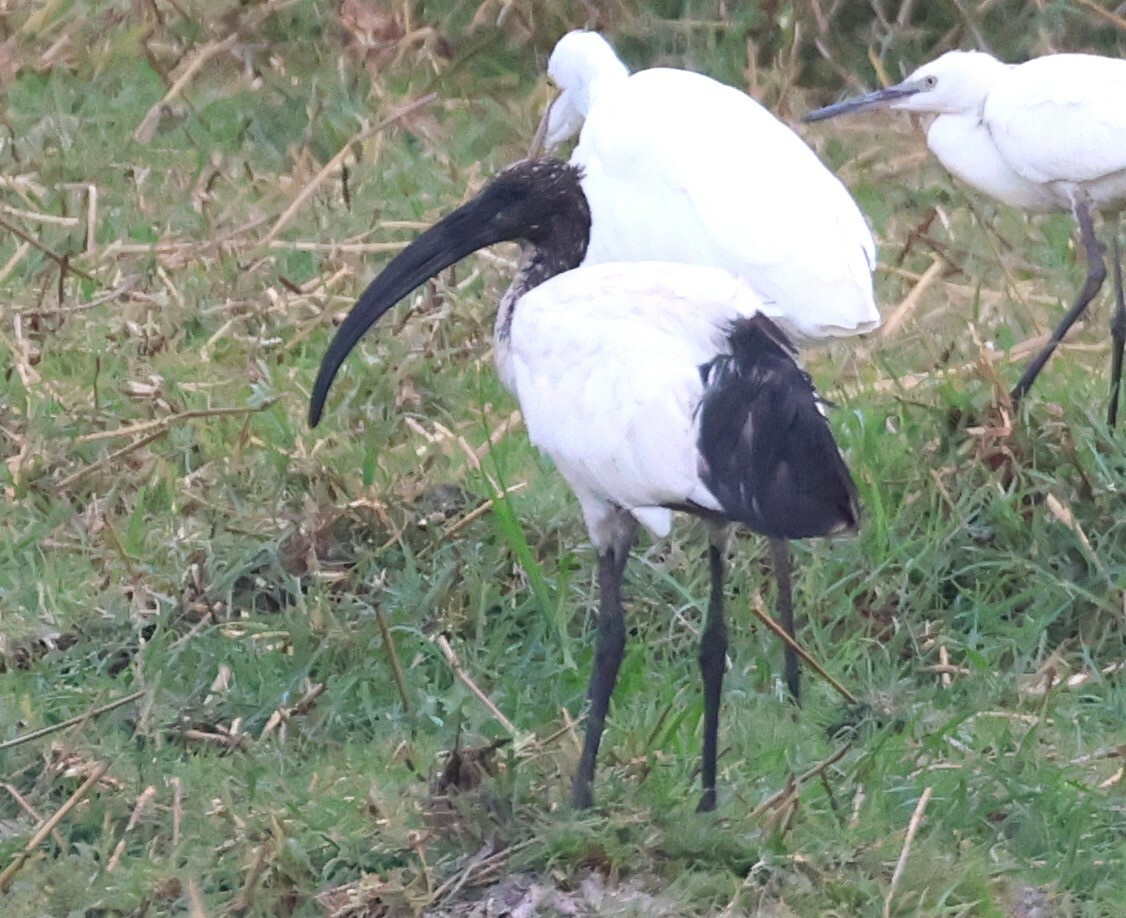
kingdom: Animalia
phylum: Chordata
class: Aves
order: Pelecaniformes
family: Threskiornithidae
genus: Threskiornis
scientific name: Threskiornis aethiopicus
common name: Sacred ibis
